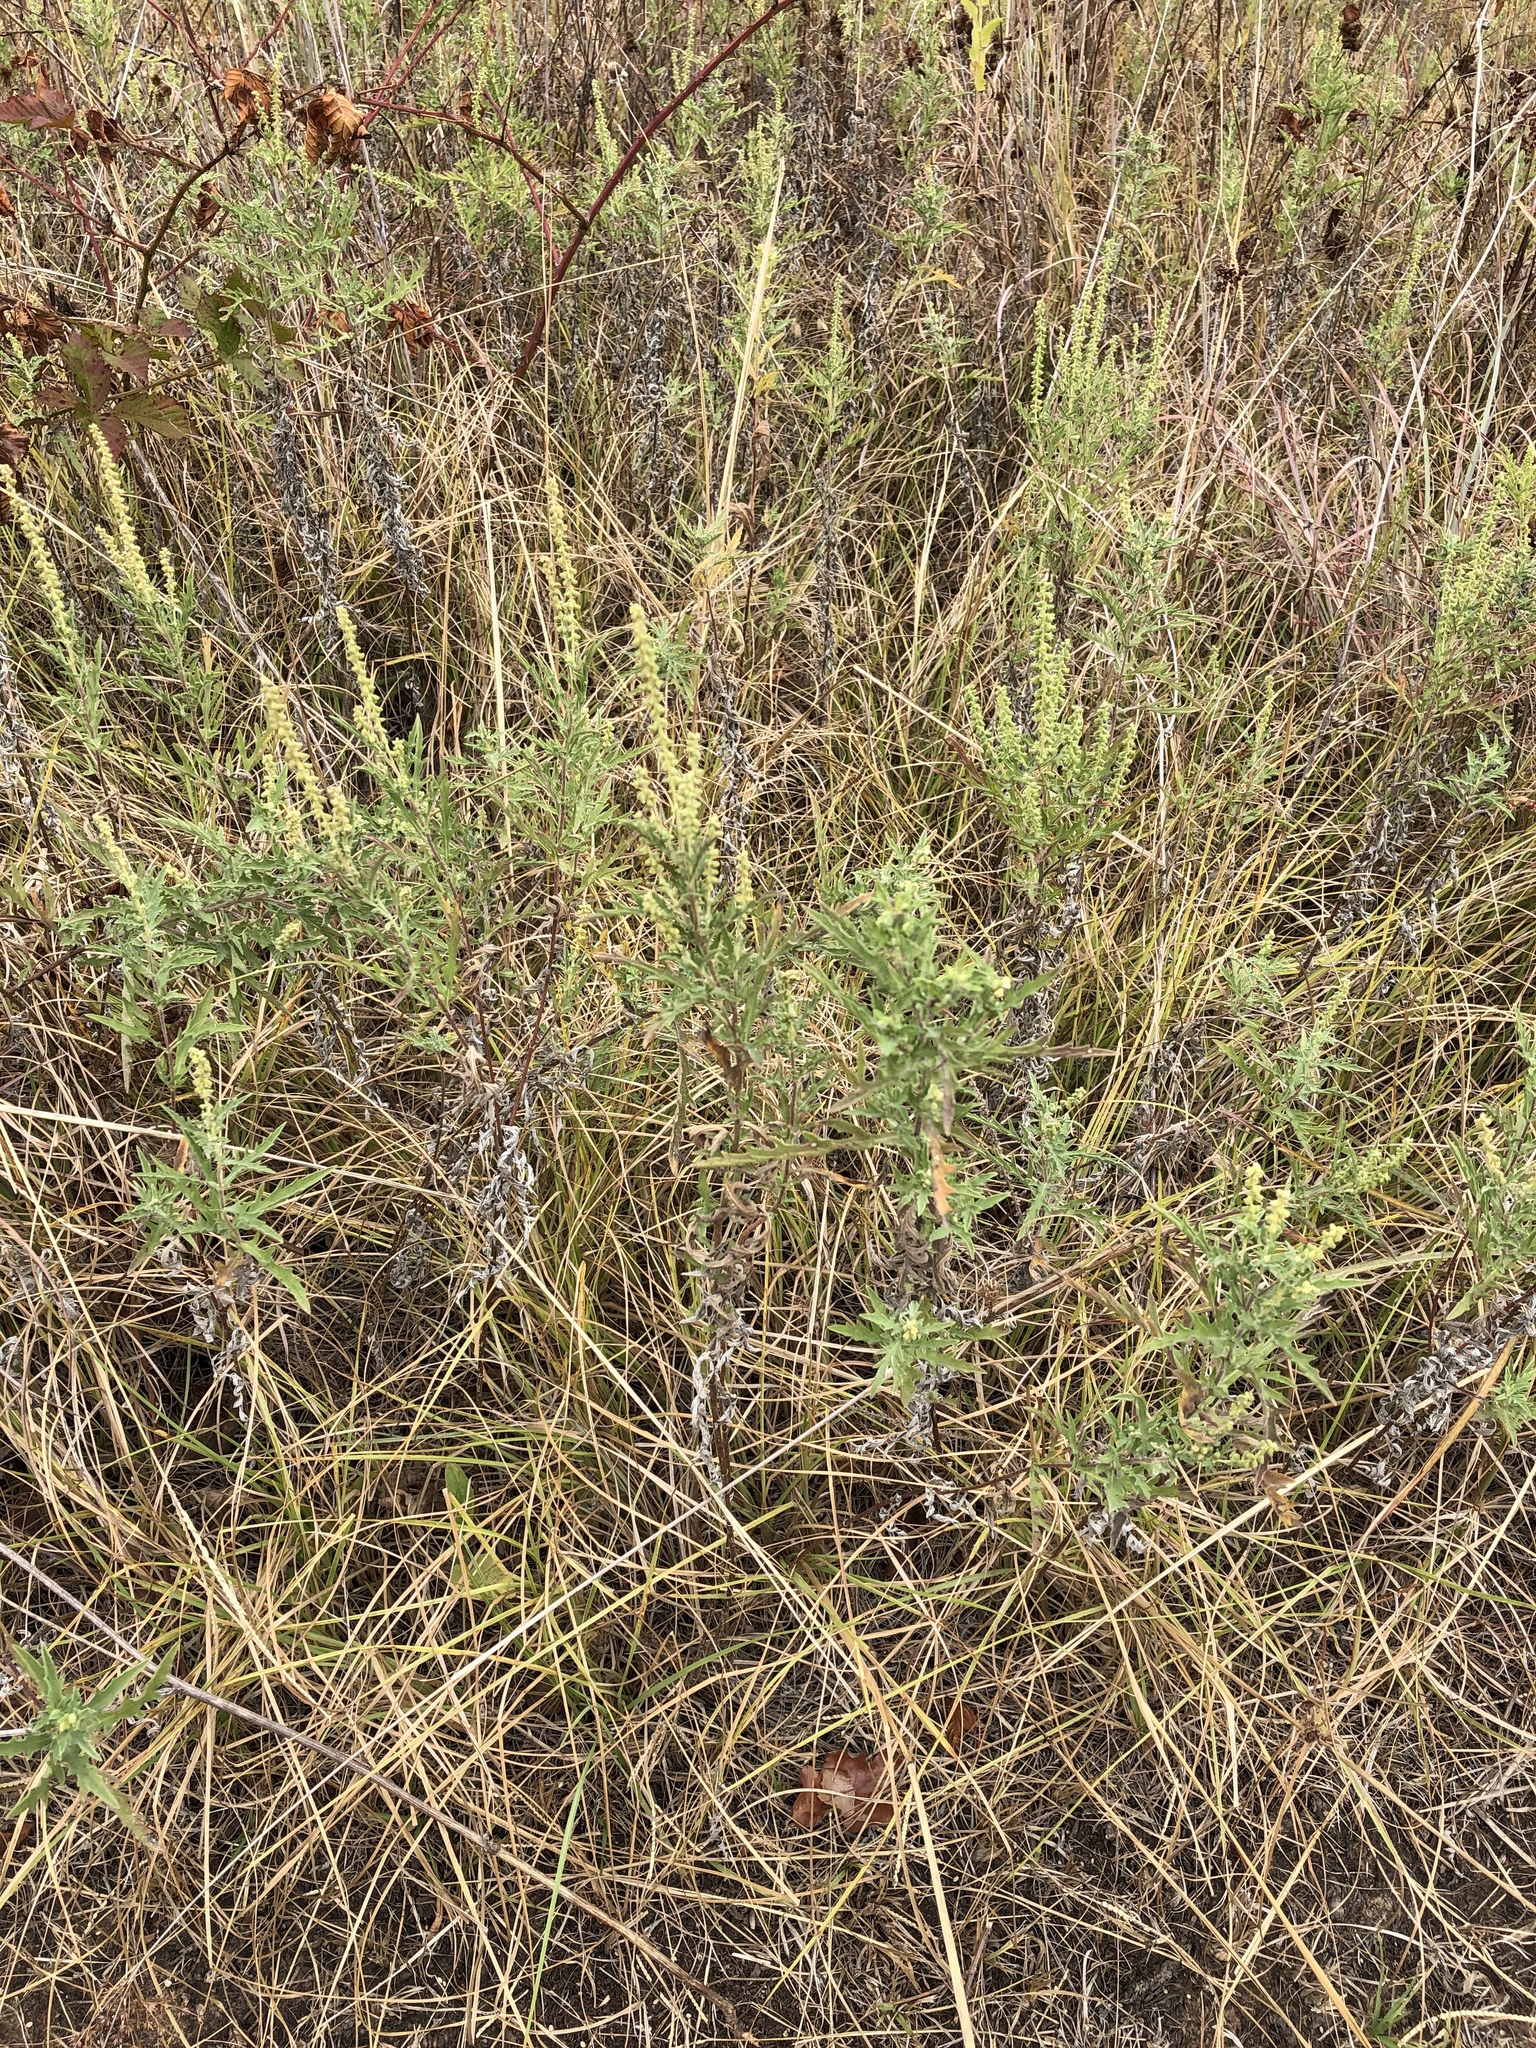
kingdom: Plantae
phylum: Tracheophyta
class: Magnoliopsida
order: Asterales
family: Asteraceae
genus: Ambrosia
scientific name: Ambrosia psilostachya
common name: Perennial ragweed
